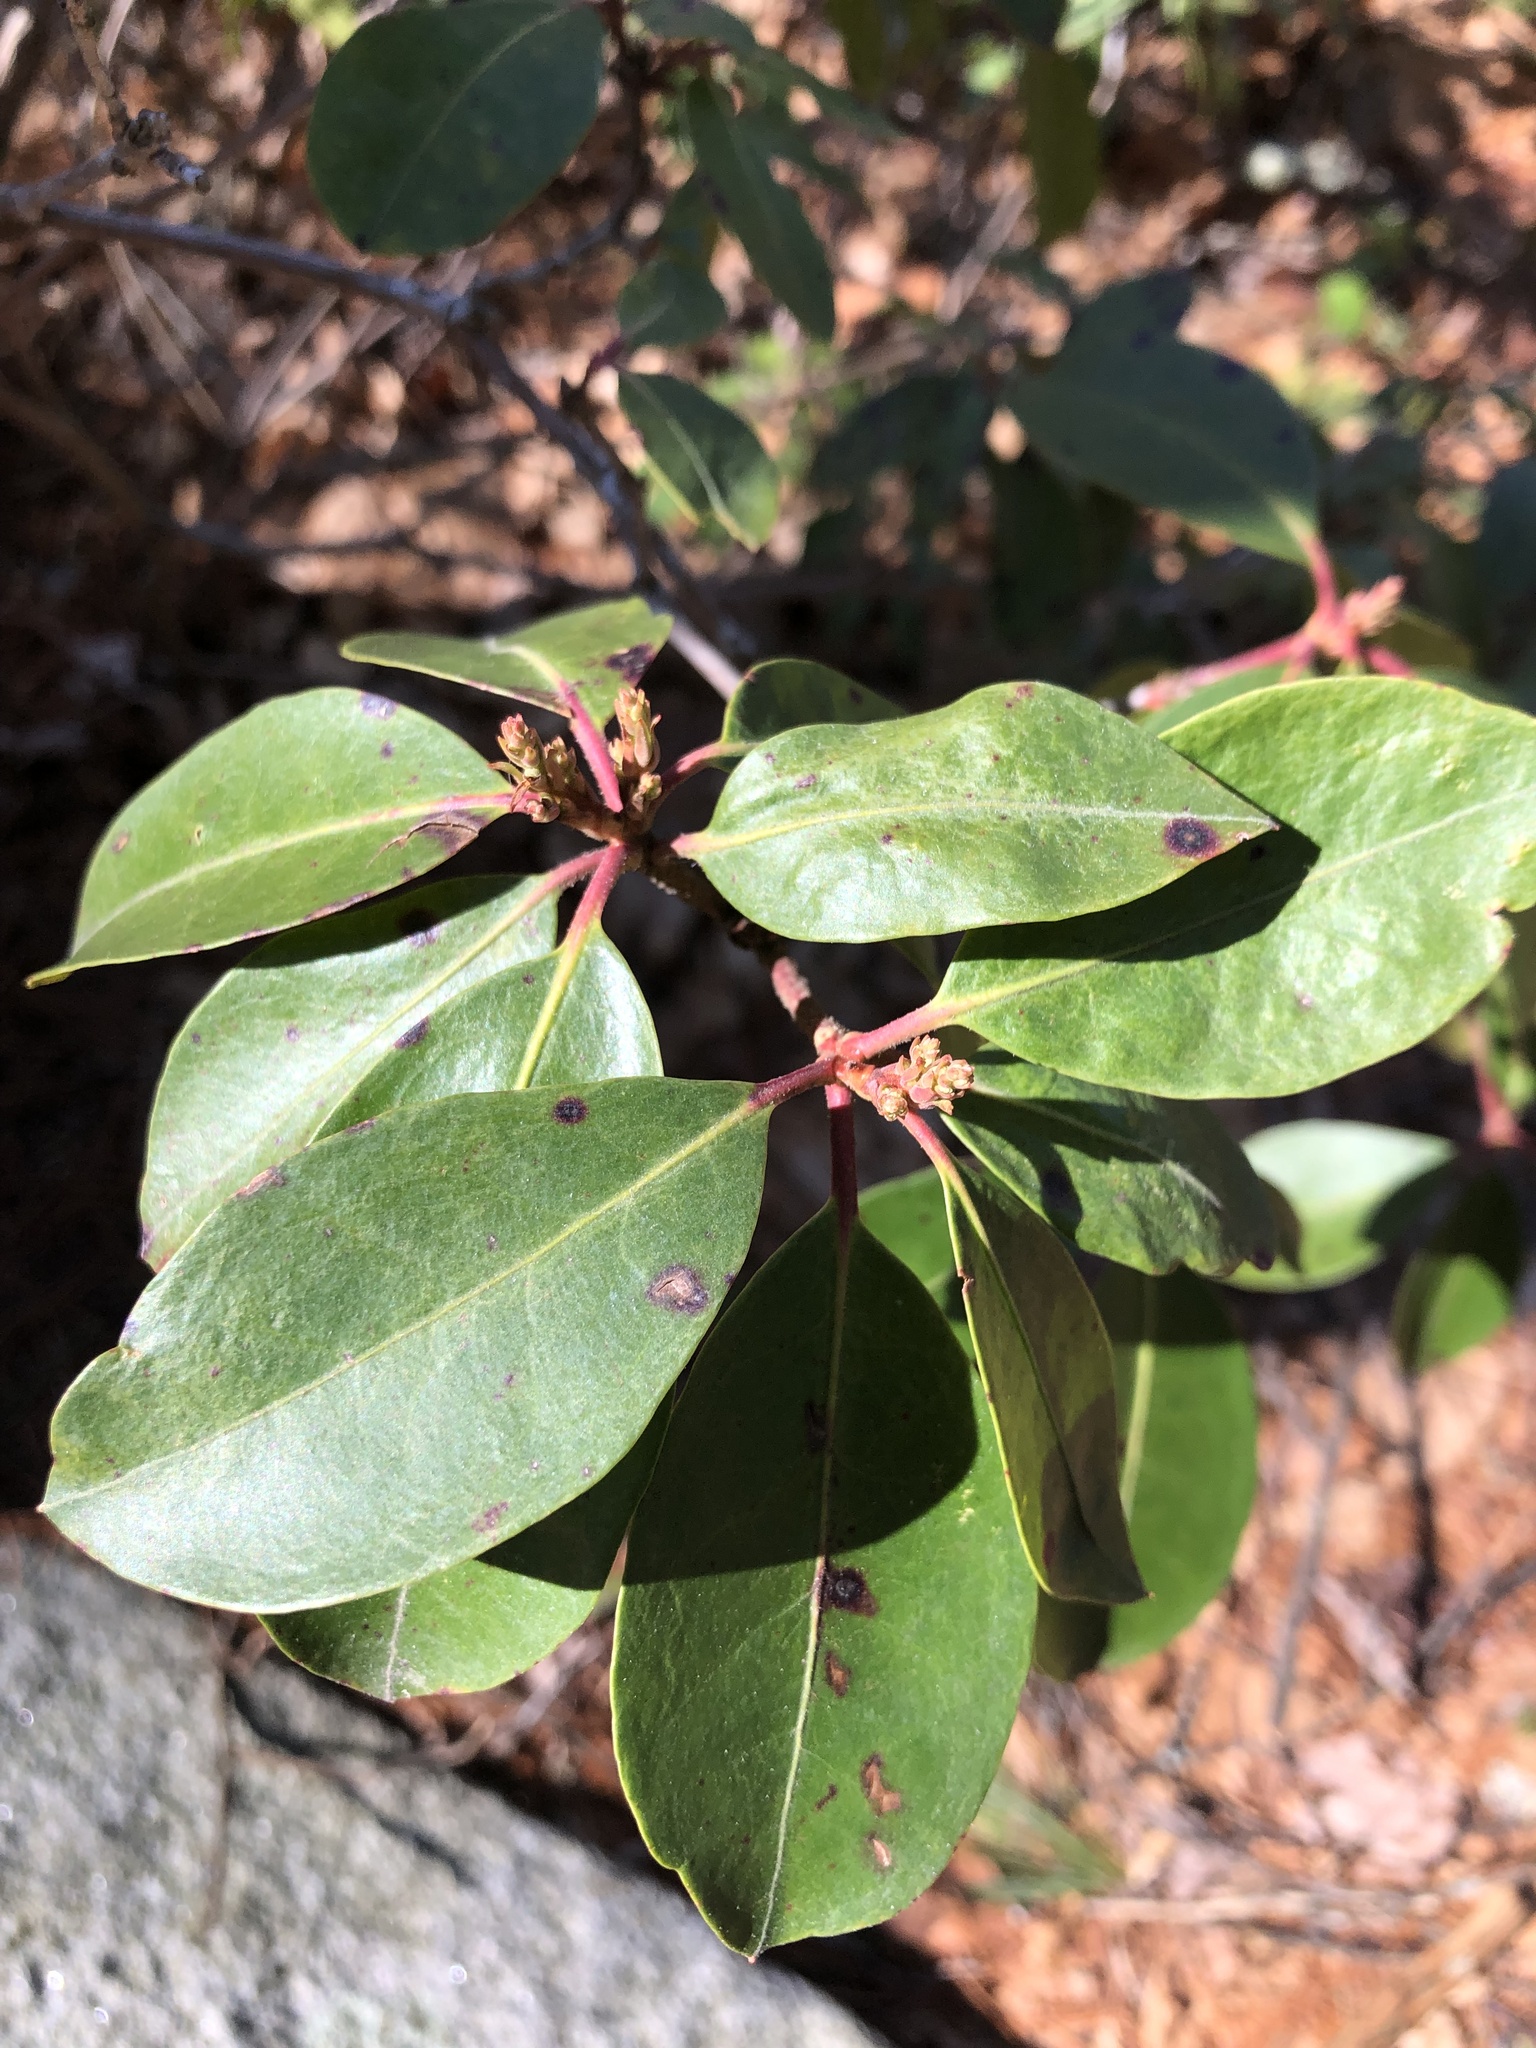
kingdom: Plantae
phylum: Tracheophyta
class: Magnoliopsida
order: Ericales
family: Ericaceae
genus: Kalmia
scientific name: Kalmia latifolia
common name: Mountain-laurel
